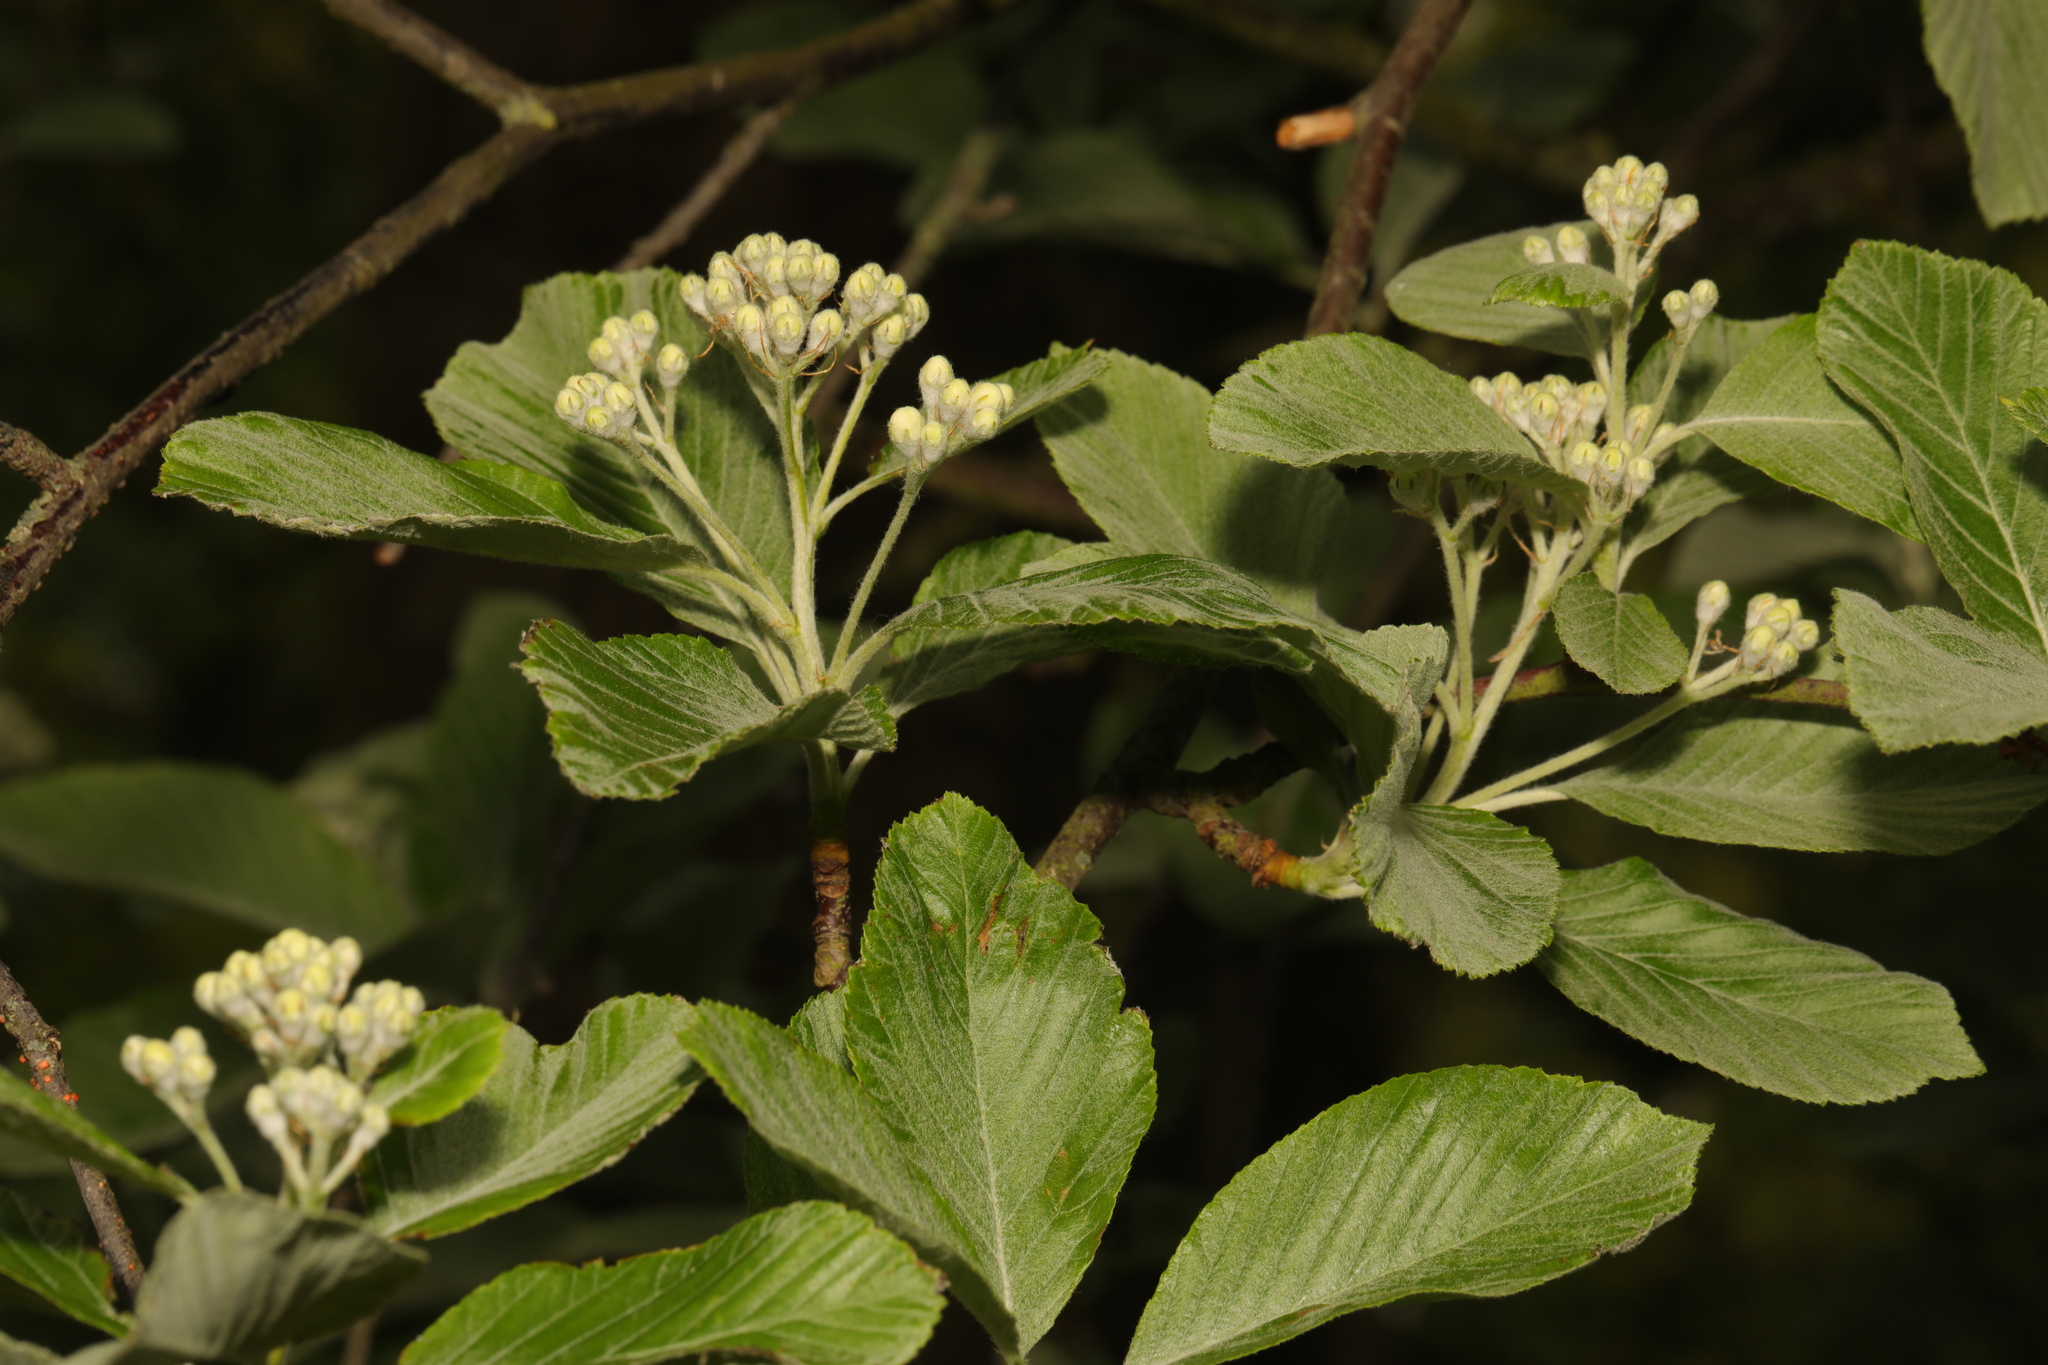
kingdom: Plantae
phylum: Tracheophyta
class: Magnoliopsida
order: Rosales
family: Rosaceae
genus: Aria
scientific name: Aria edulis
